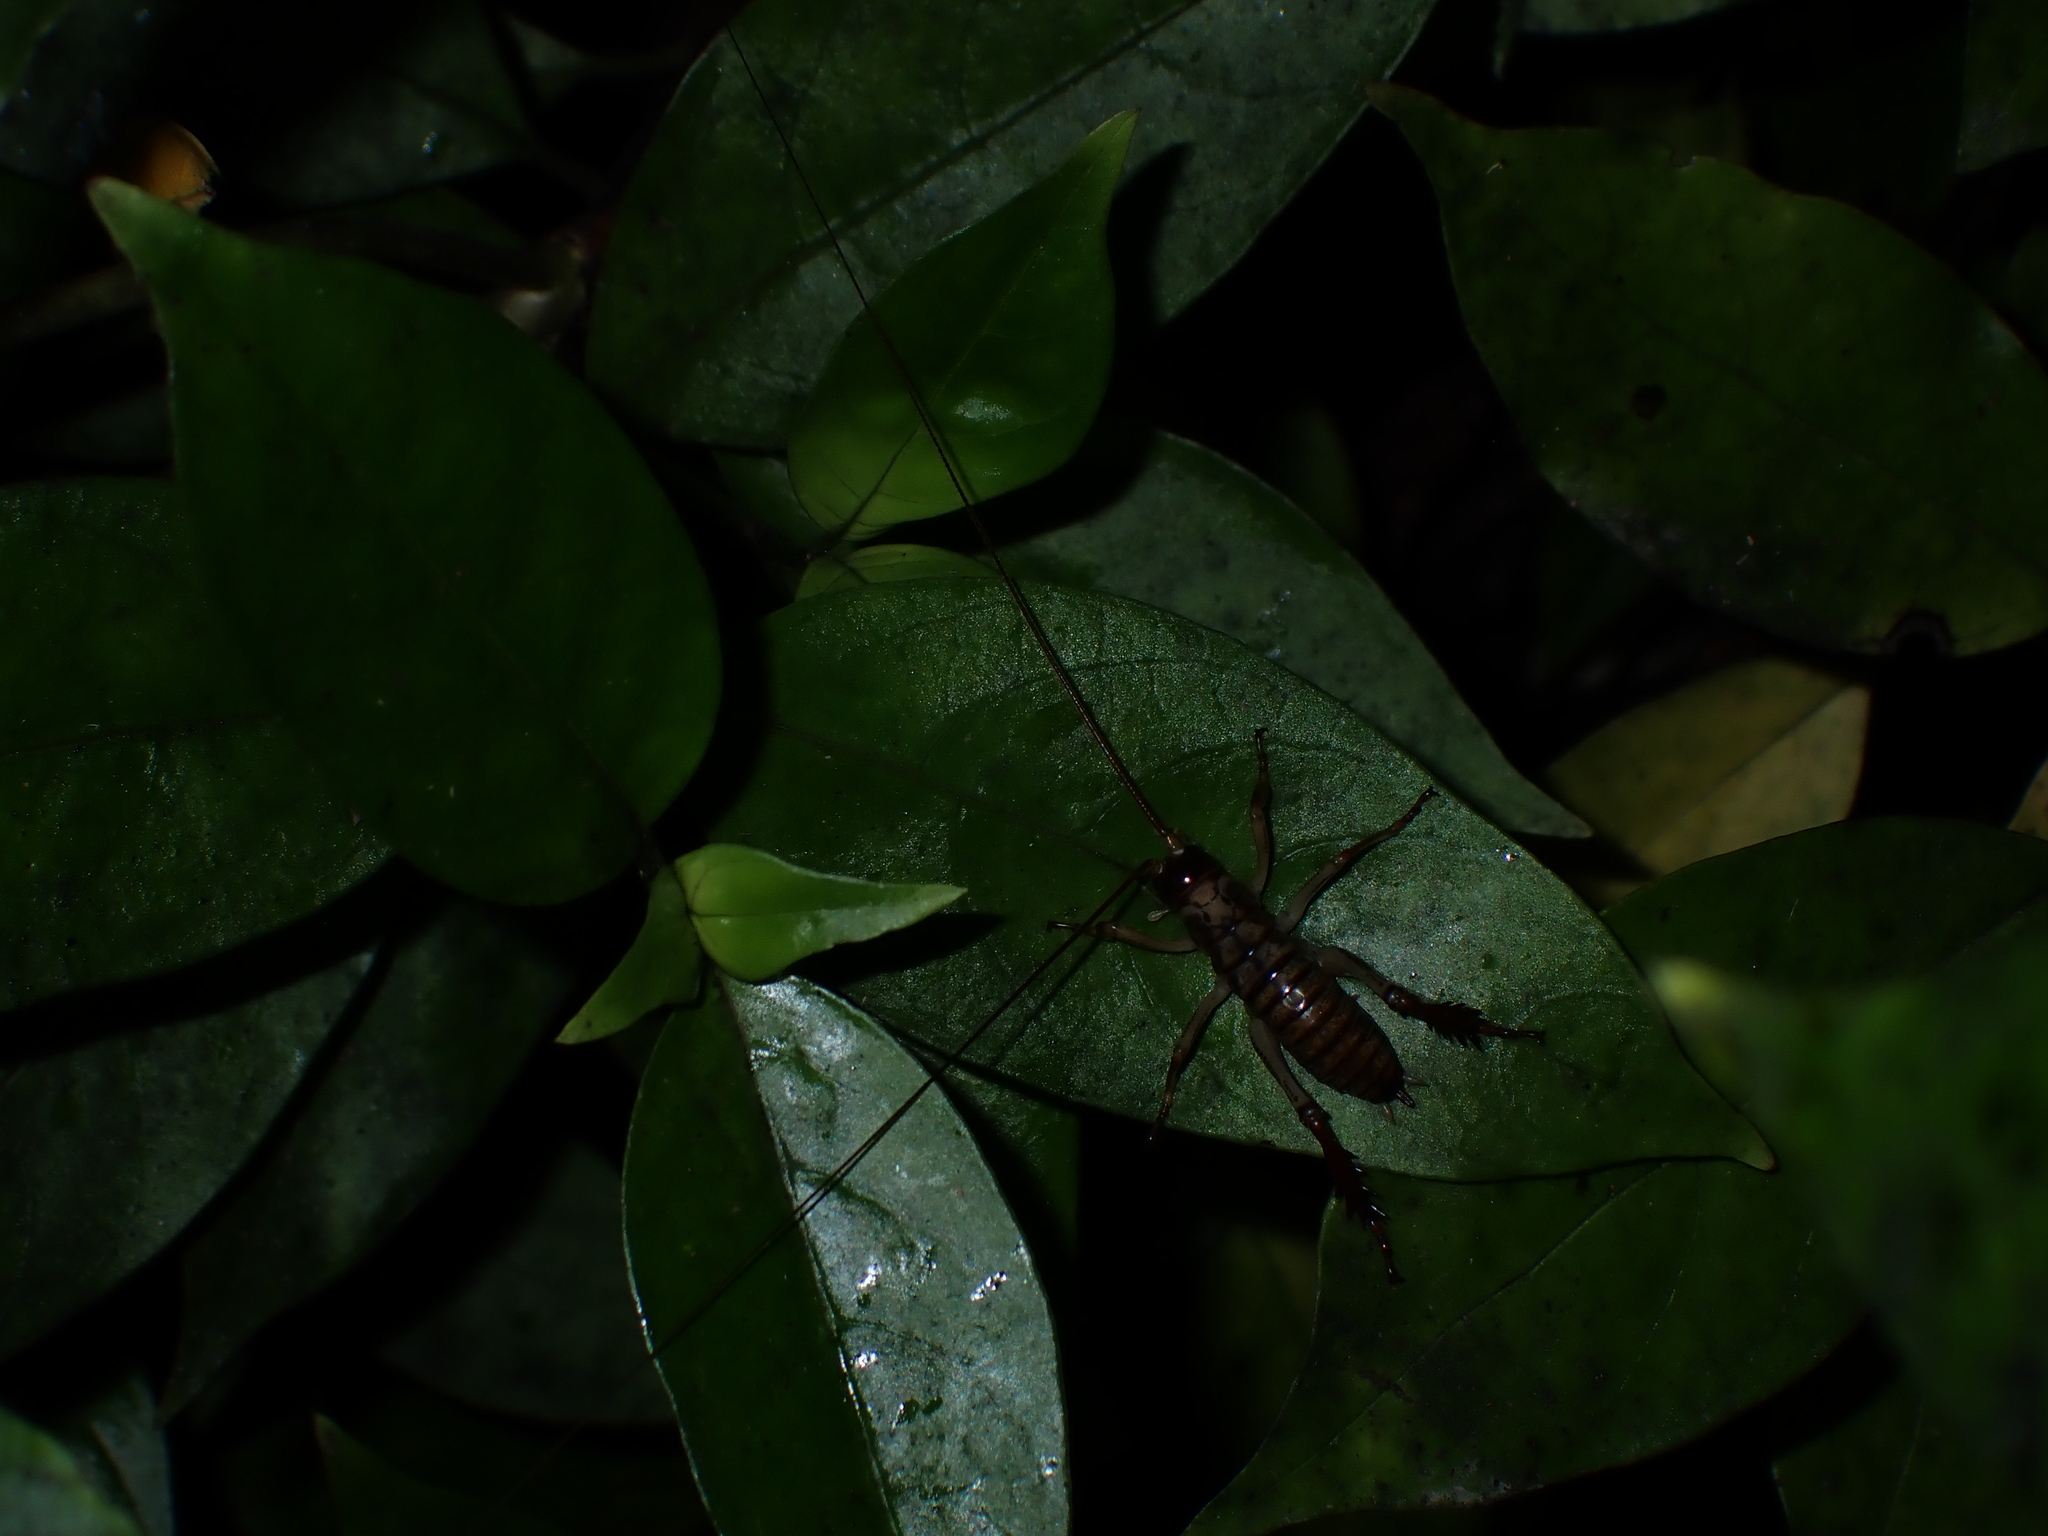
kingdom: Animalia
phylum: Arthropoda
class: Insecta
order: Orthoptera
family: Anostostomatidae
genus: Hemideina
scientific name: Hemideina thoracica
